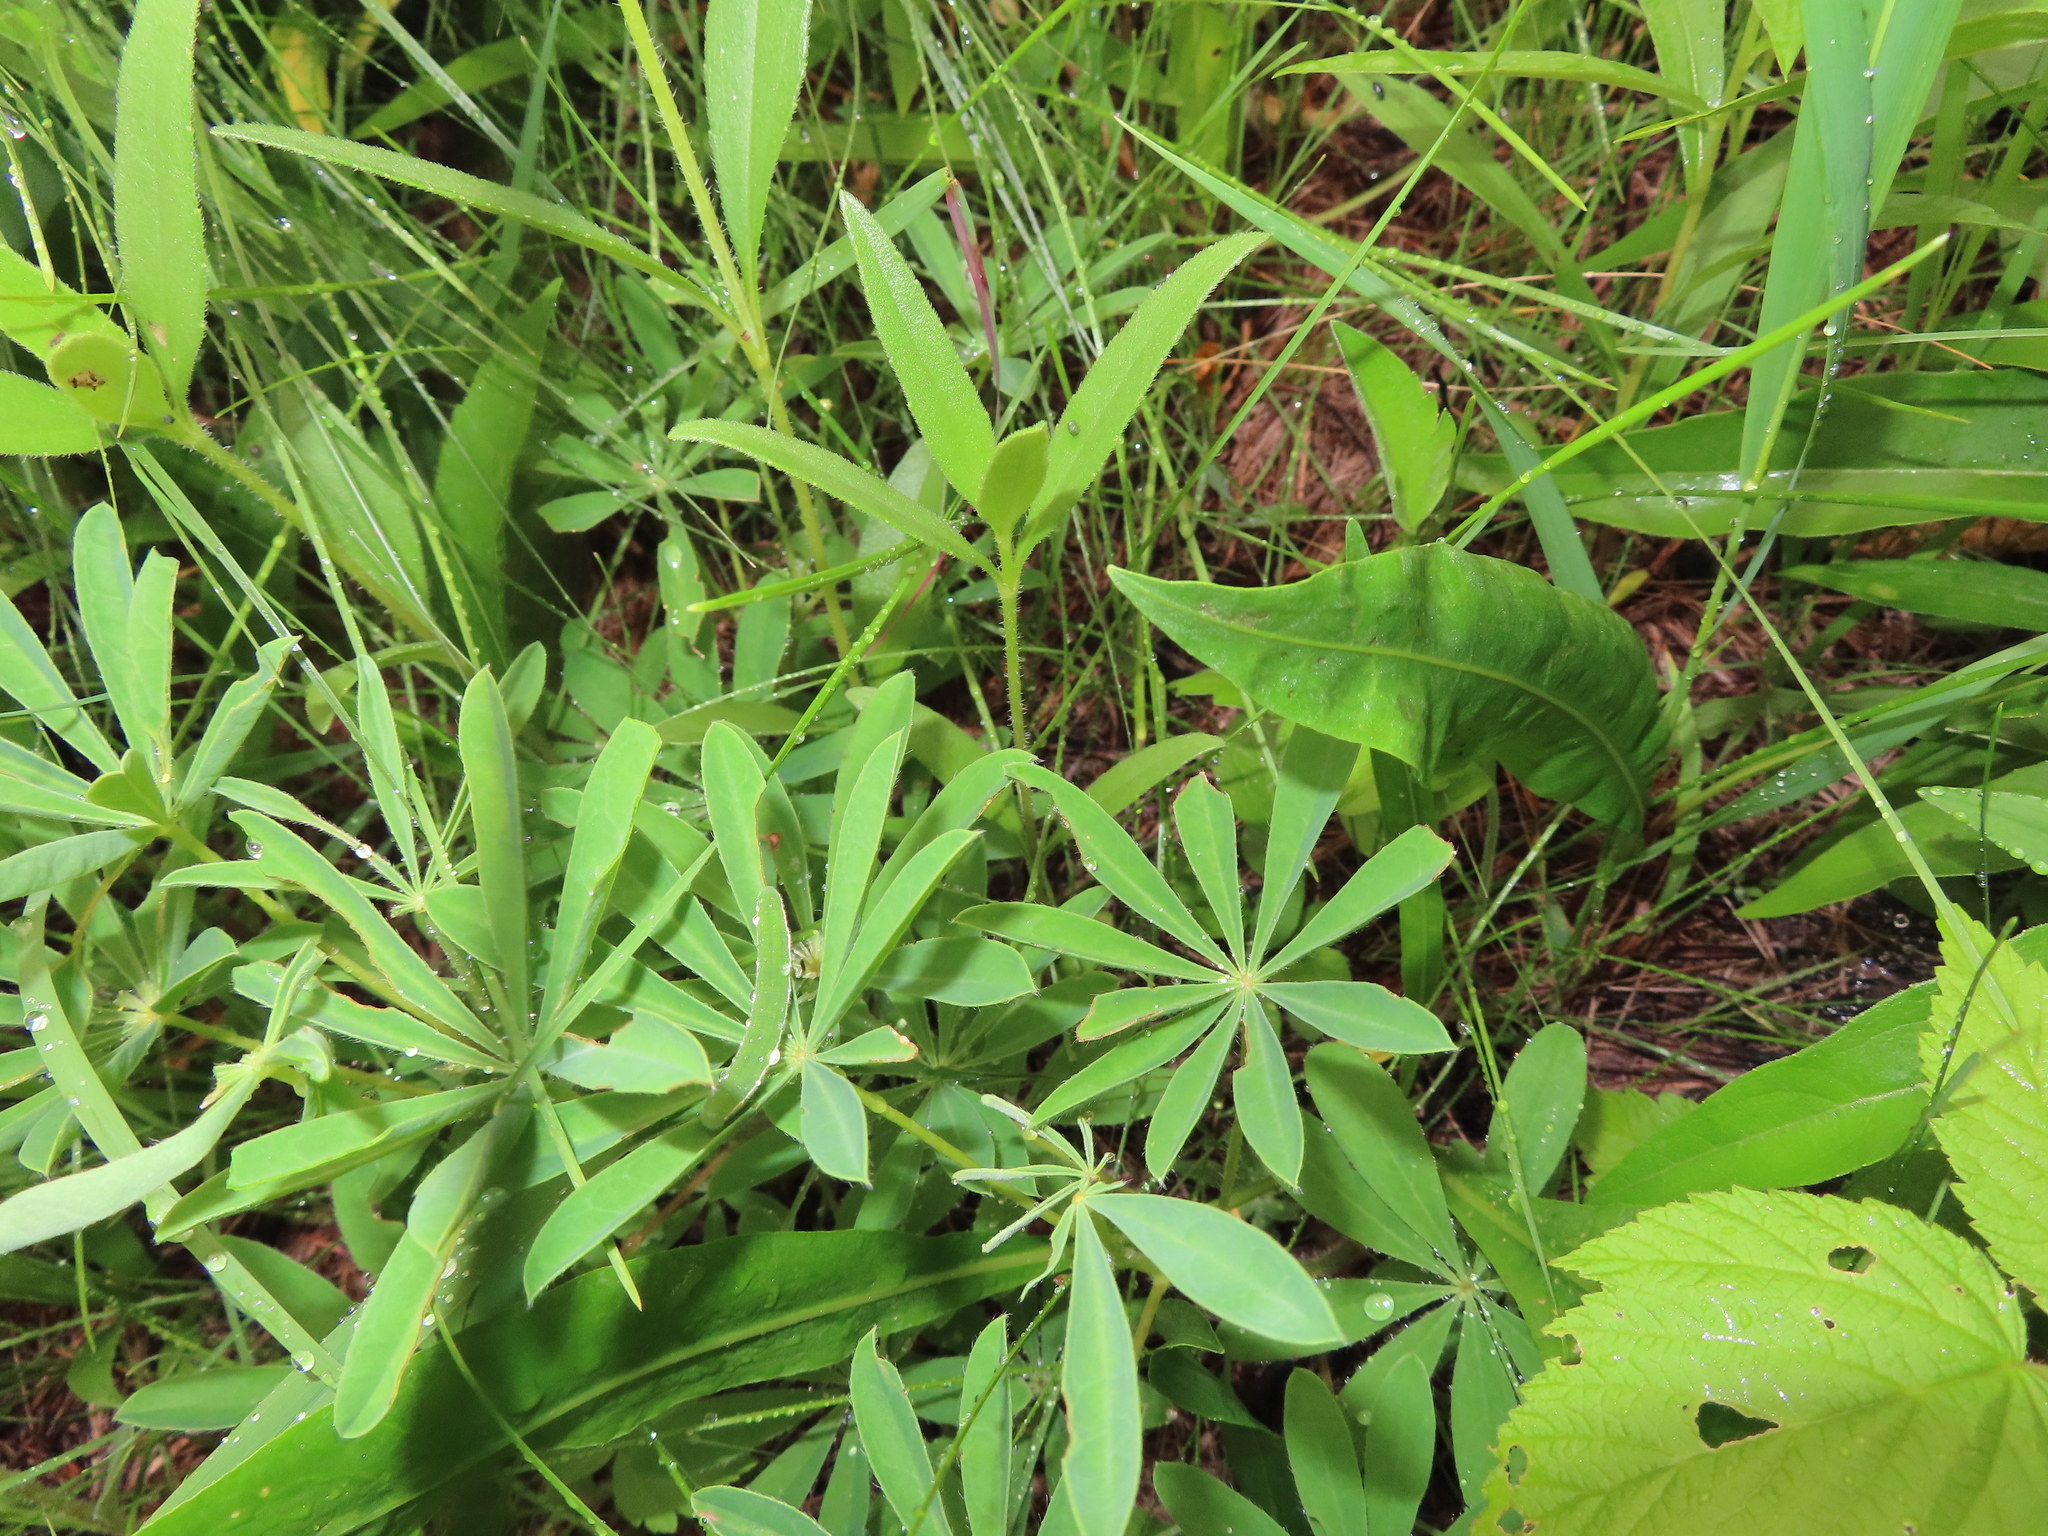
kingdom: Plantae
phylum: Tracheophyta
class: Magnoliopsida
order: Fabales
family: Fabaceae
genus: Lupinus
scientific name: Lupinus perennis
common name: Sundial lupine
